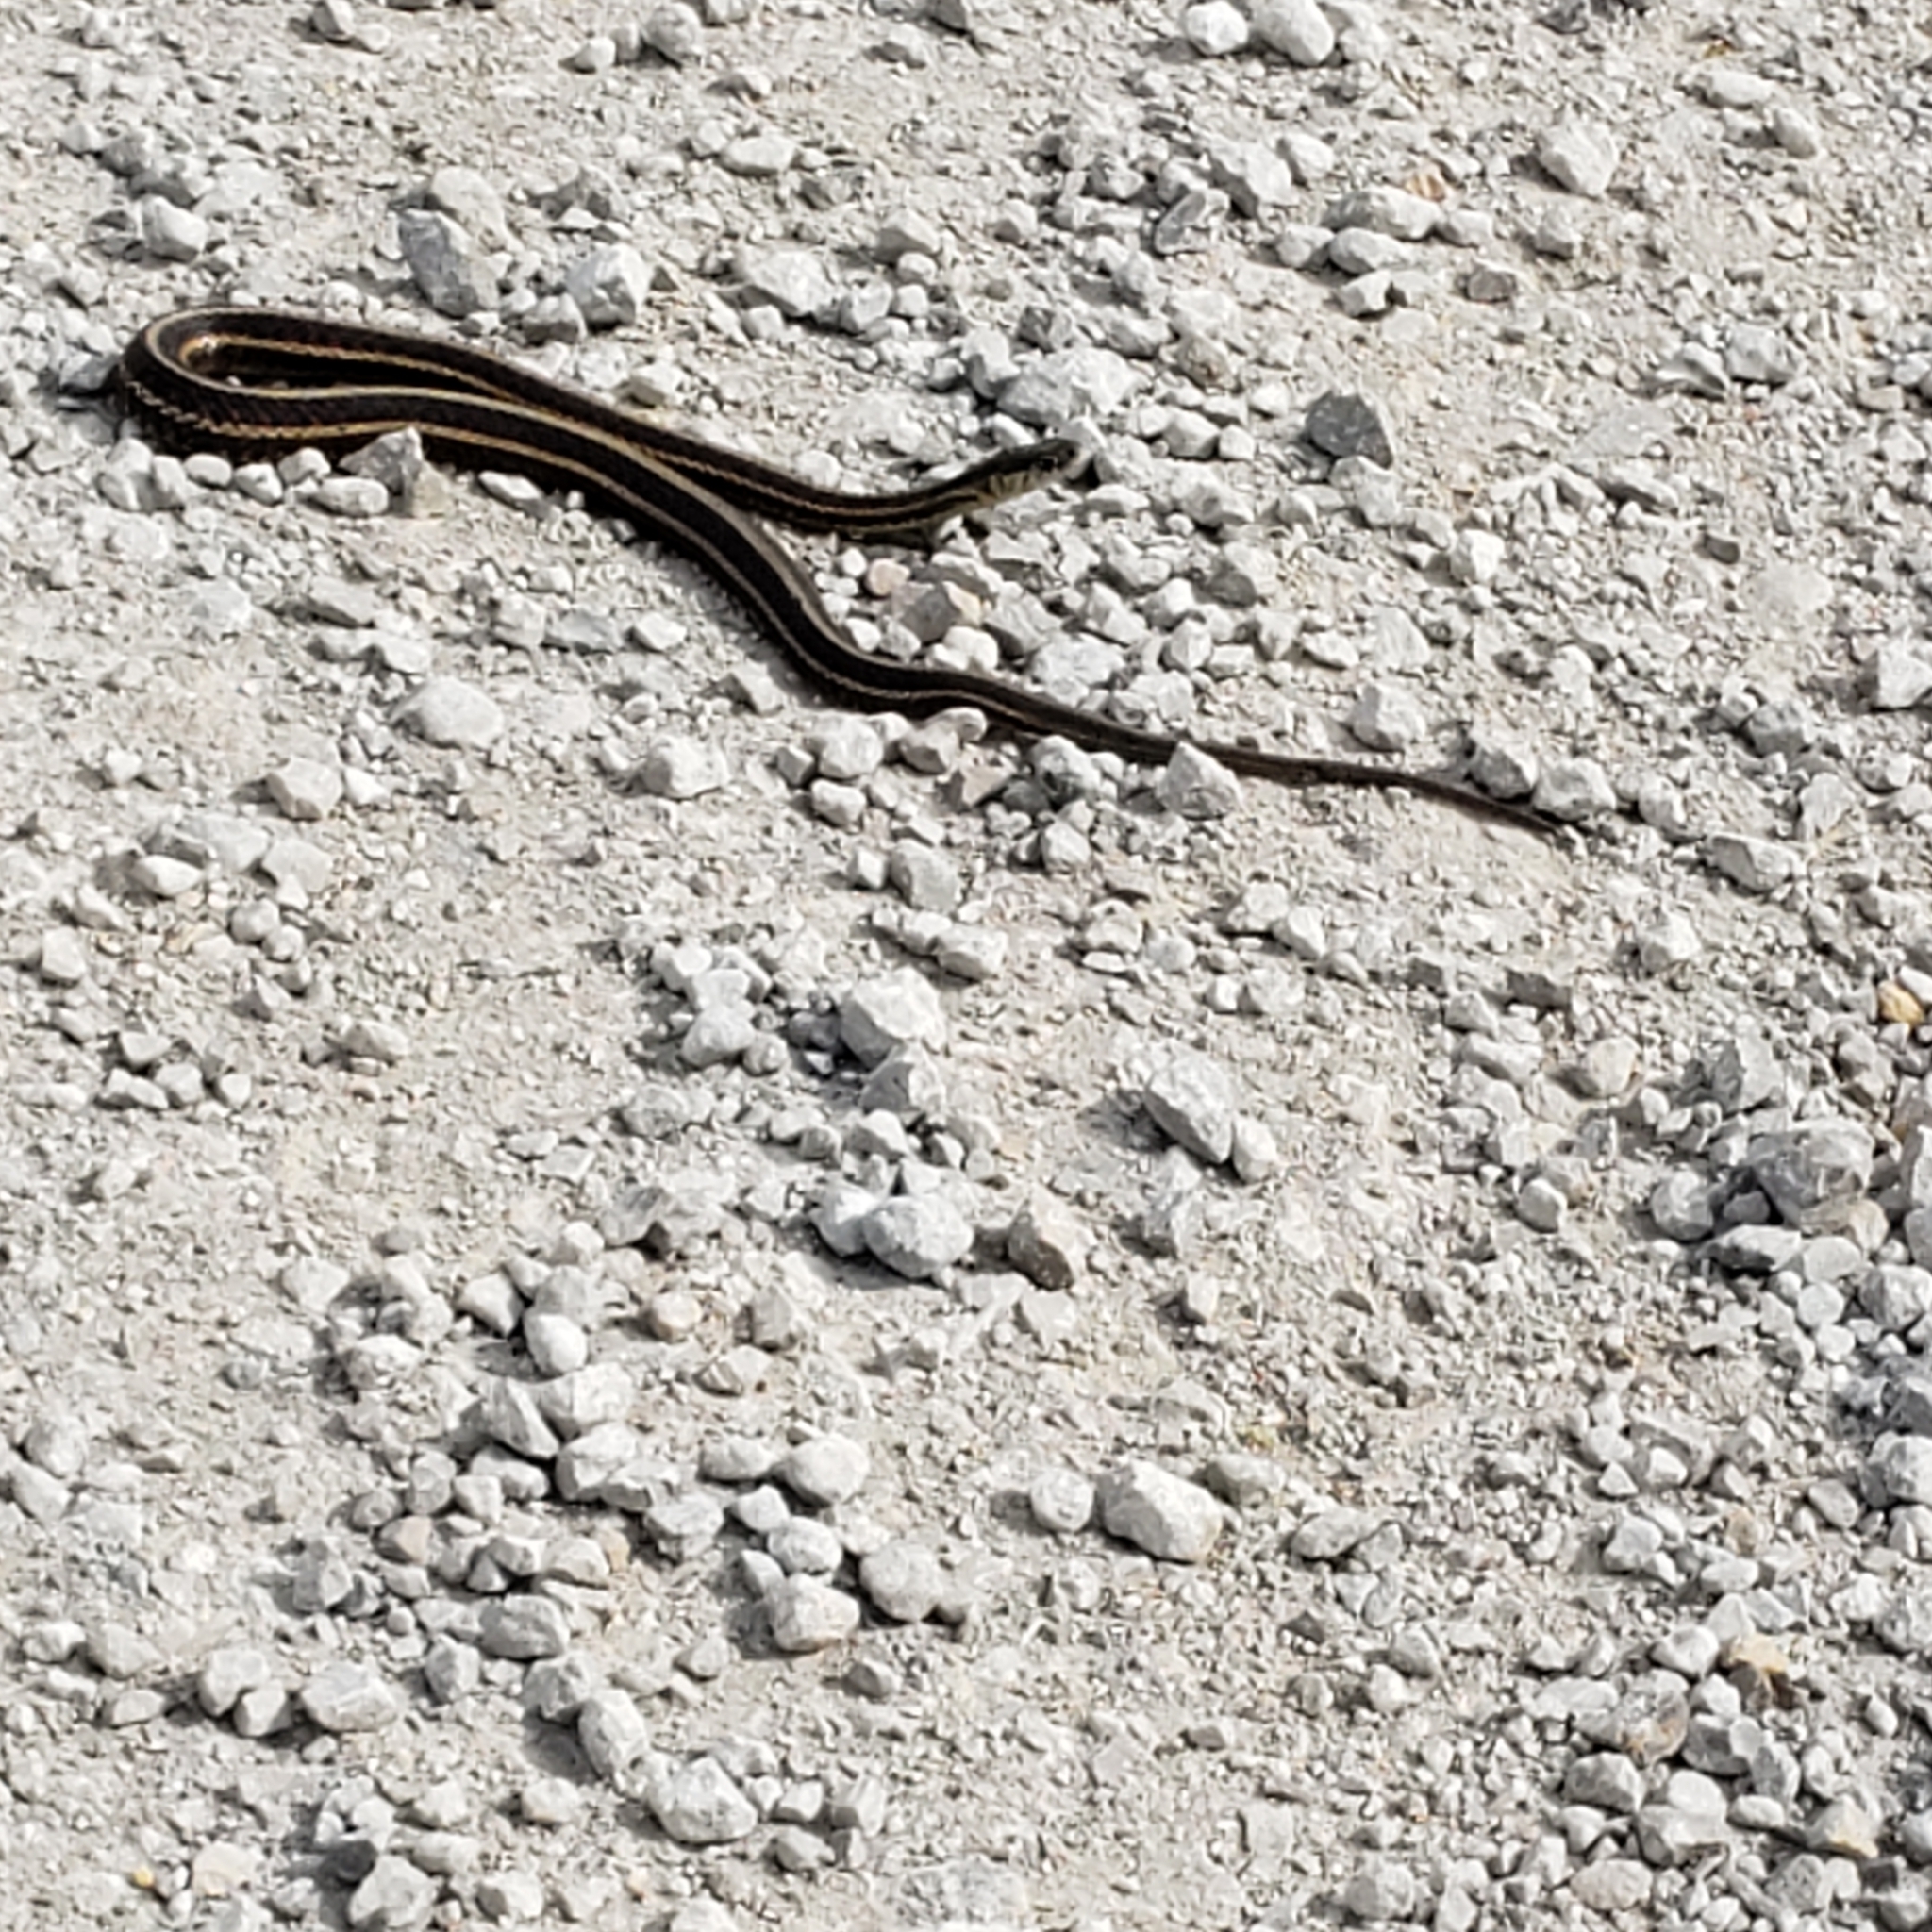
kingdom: Animalia
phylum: Chordata
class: Squamata
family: Colubridae
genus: Thamnophis
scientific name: Thamnophis sirtalis
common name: Common garter snake
